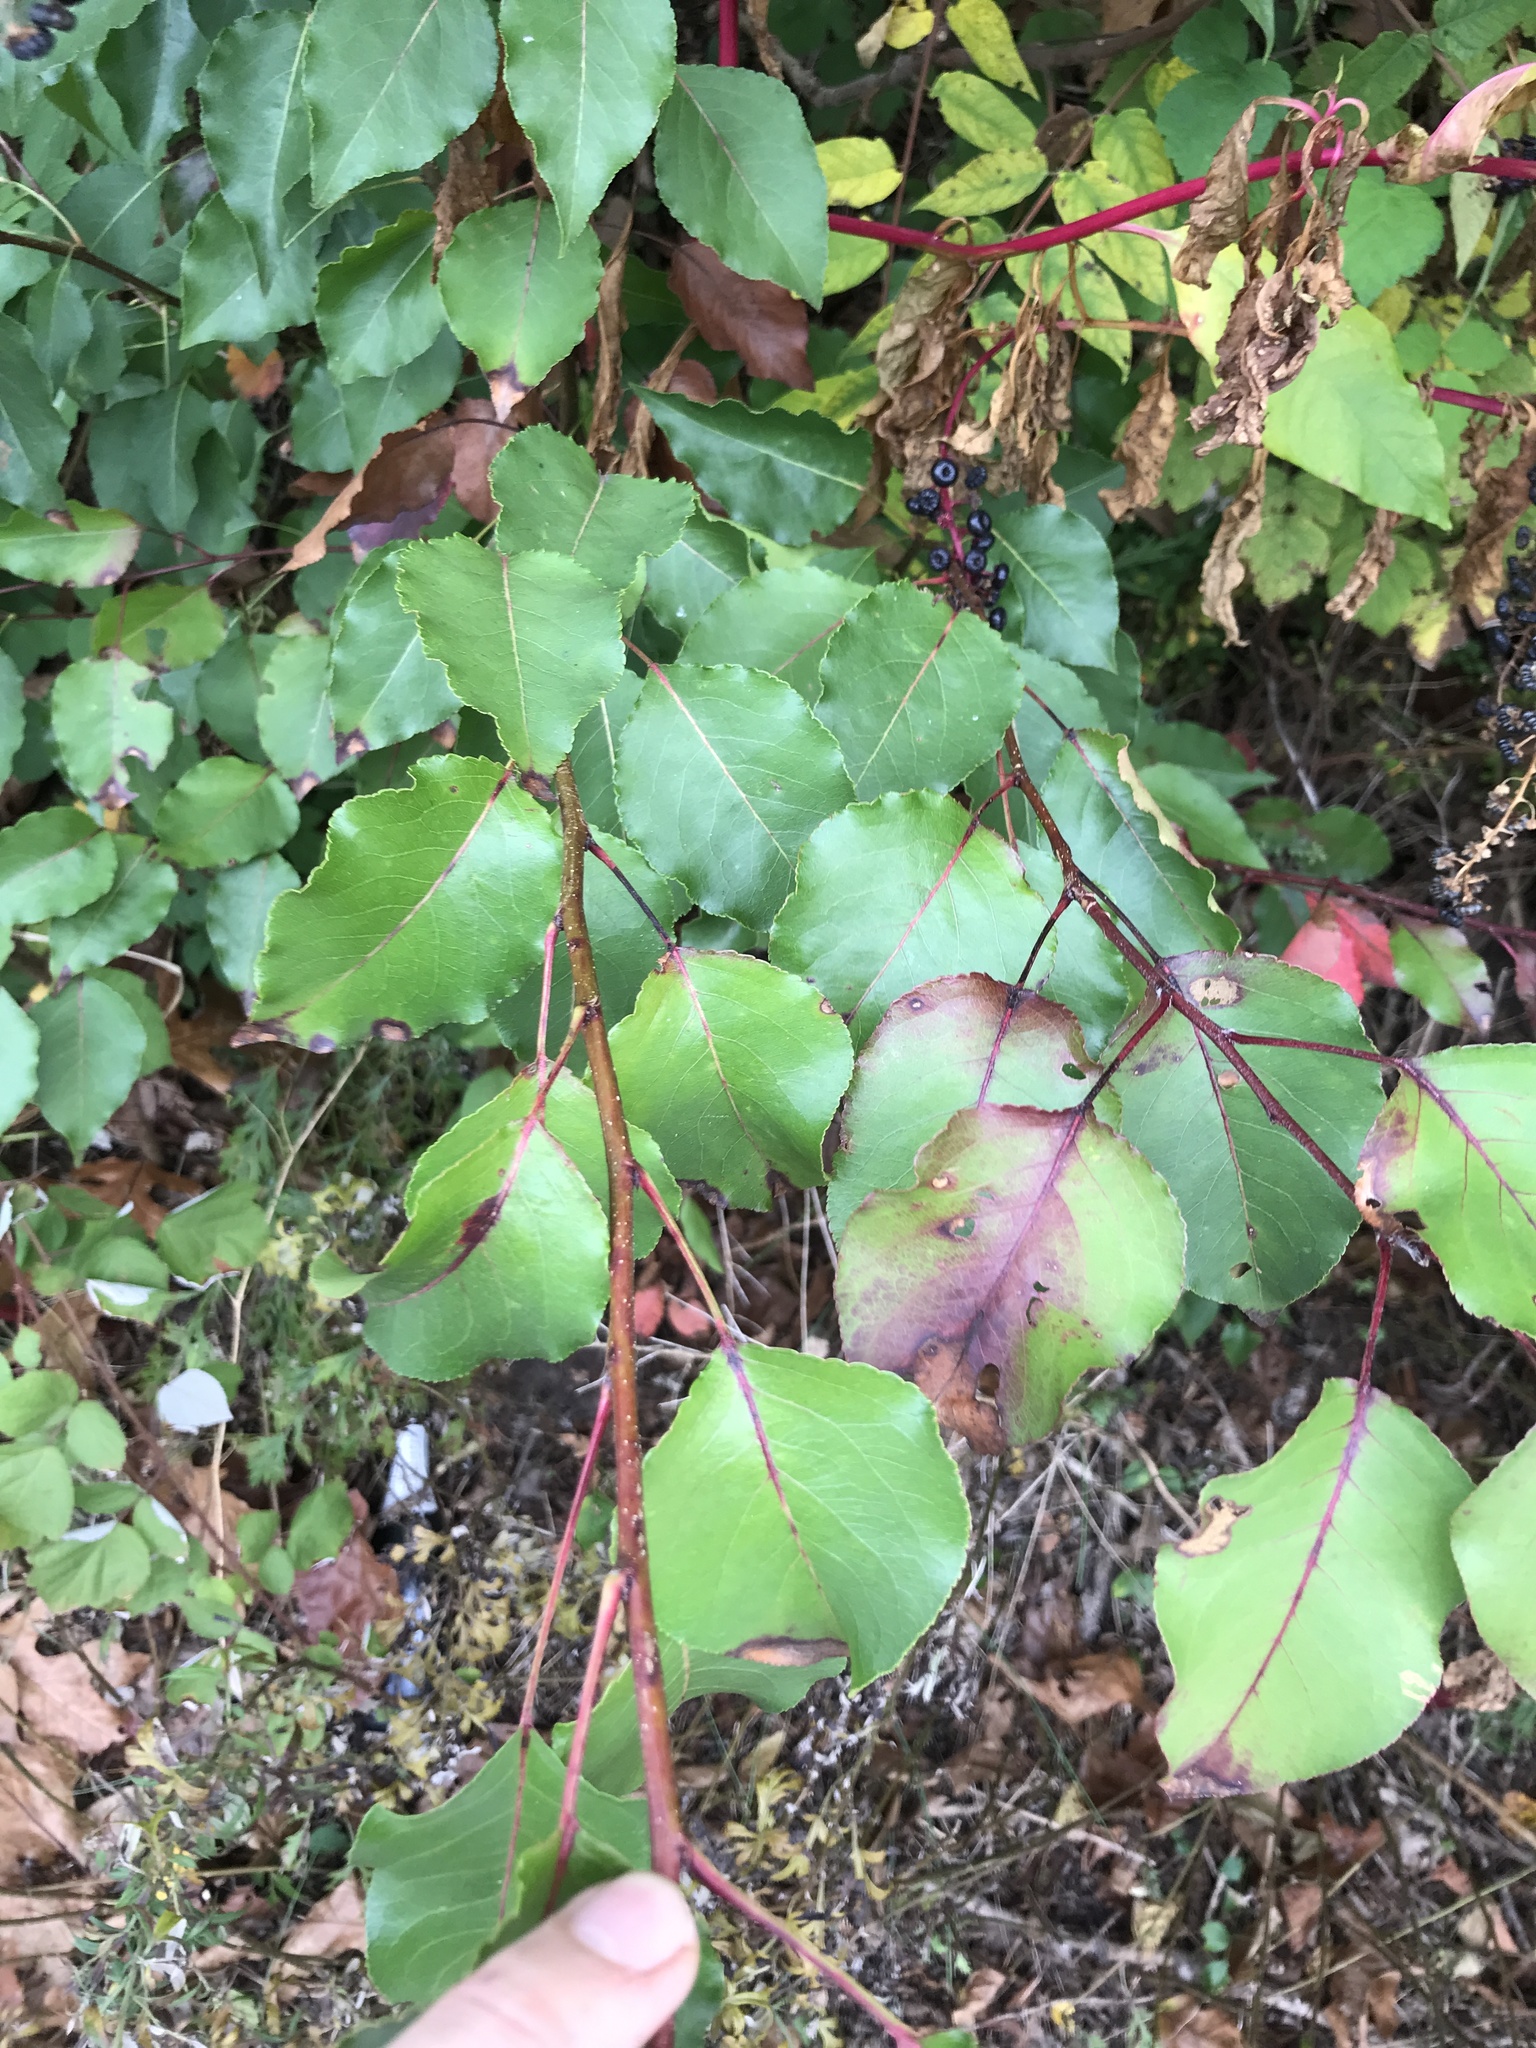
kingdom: Plantae
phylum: Tracheophyta
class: Magnoliopsida
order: Rosales
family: Rosaceae
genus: Pyrus
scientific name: Pyrus calleryana
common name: Callery pear
